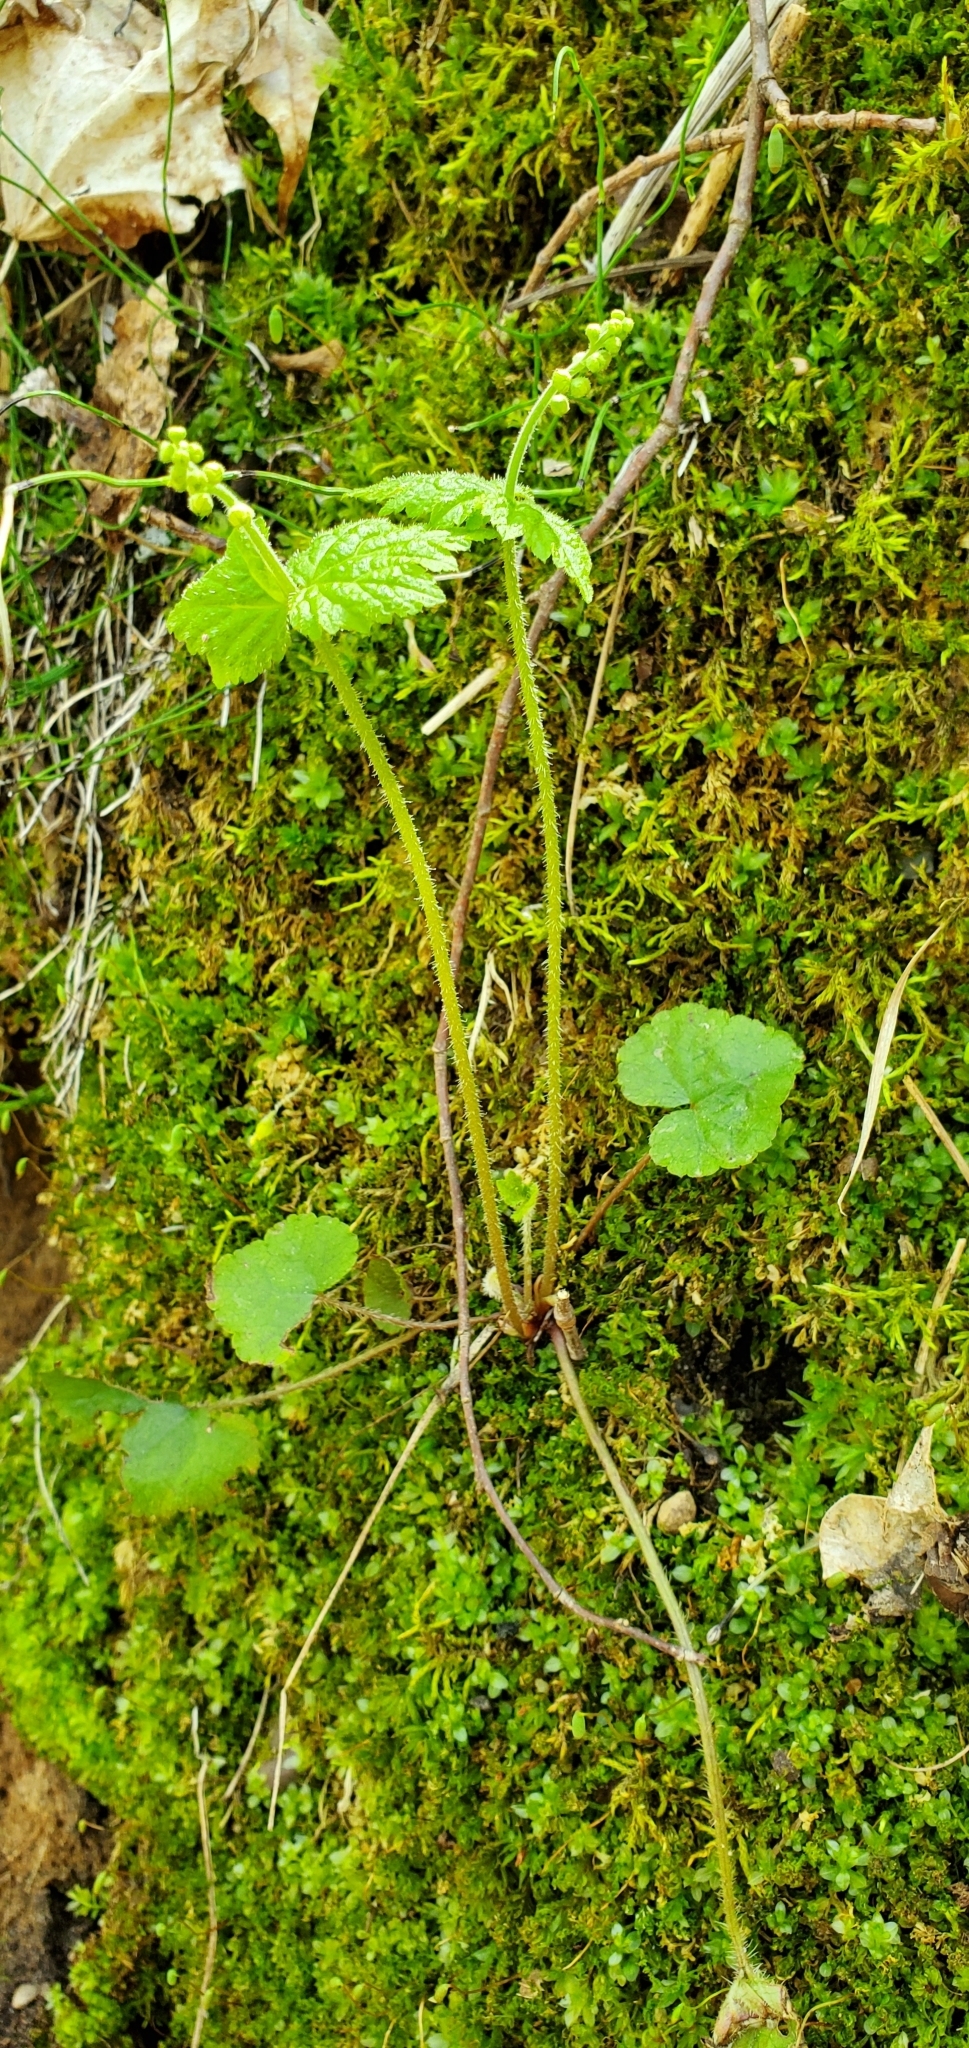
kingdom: Plantae
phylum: Tracheophyta
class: Magnoliopsida
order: Saxifragales
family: Saxifragaceae
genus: Mitella
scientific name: Mitella diphylla
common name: Coolwort
